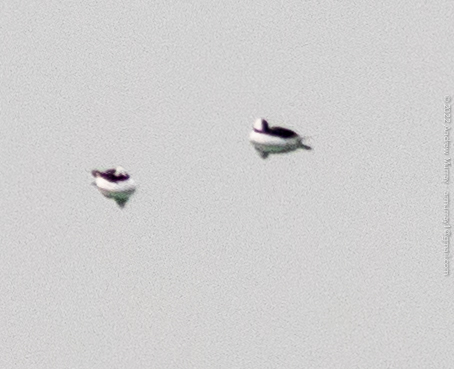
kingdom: Animalia
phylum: Chordata
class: Aves
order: Anseriformes
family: Anatidae
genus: Bucephala
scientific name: Bucephala albeola
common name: Bufflehead
